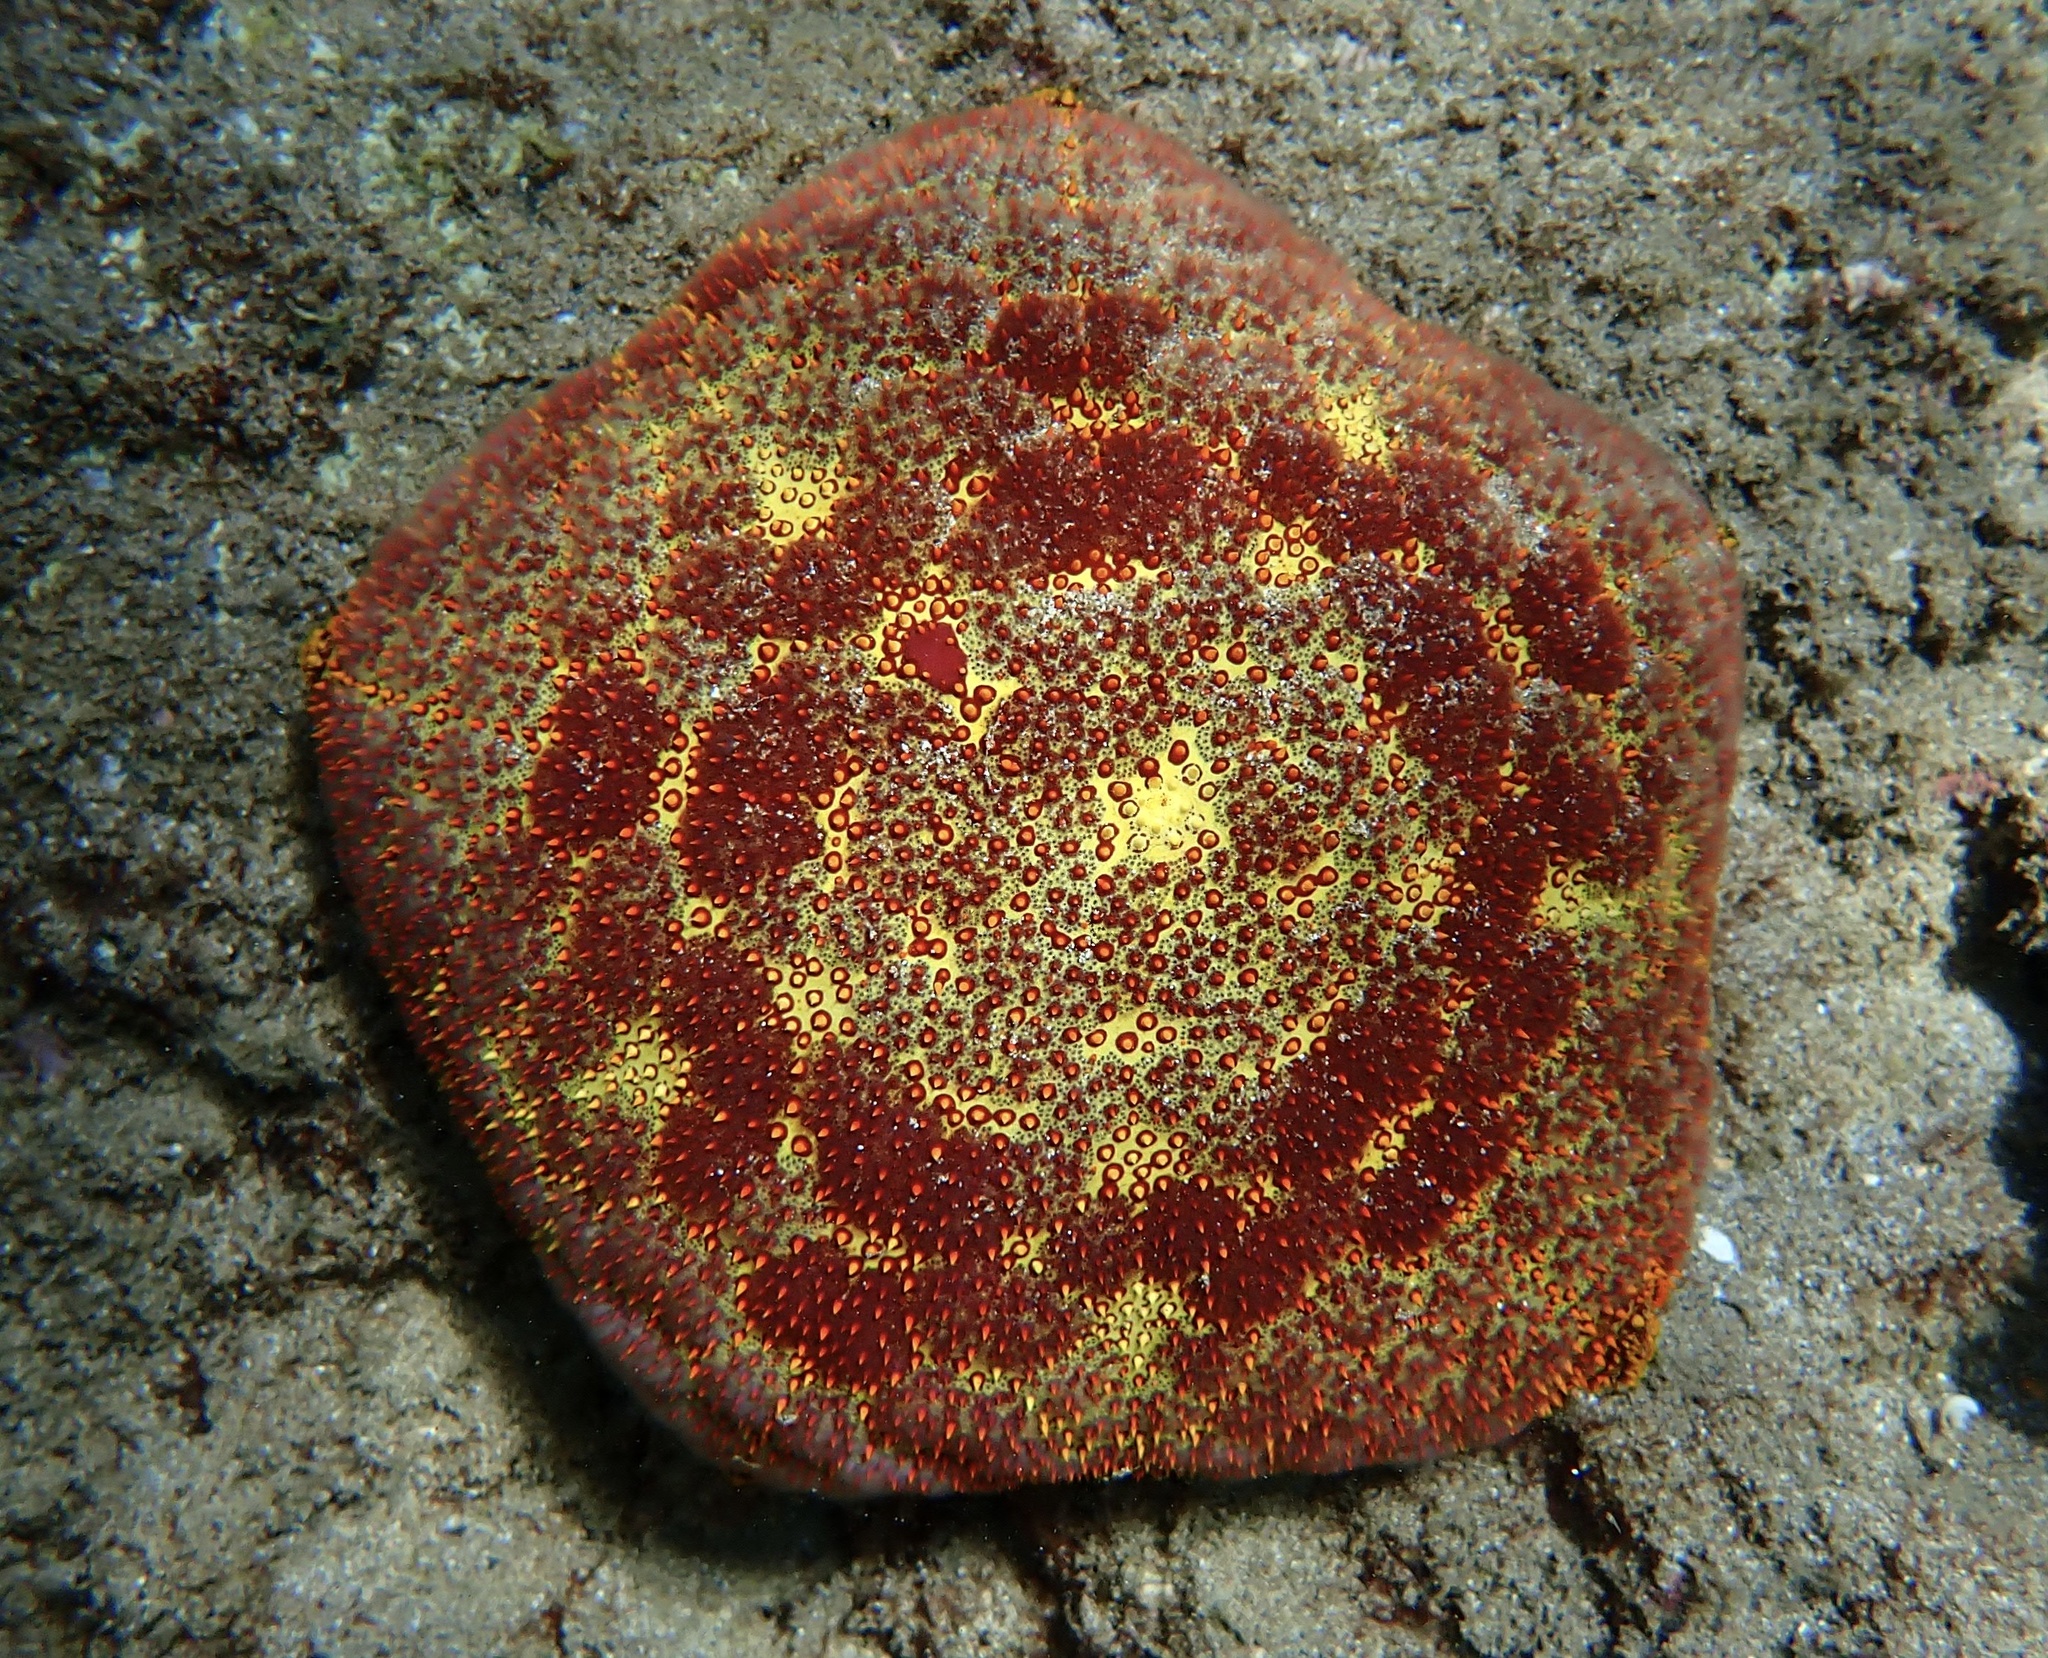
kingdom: Animalia
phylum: Echinodermata
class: Asteroidea
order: Valvatida
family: Oreasteridae
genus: Culcita
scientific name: Culcita novaeguineae
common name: Cushion star
